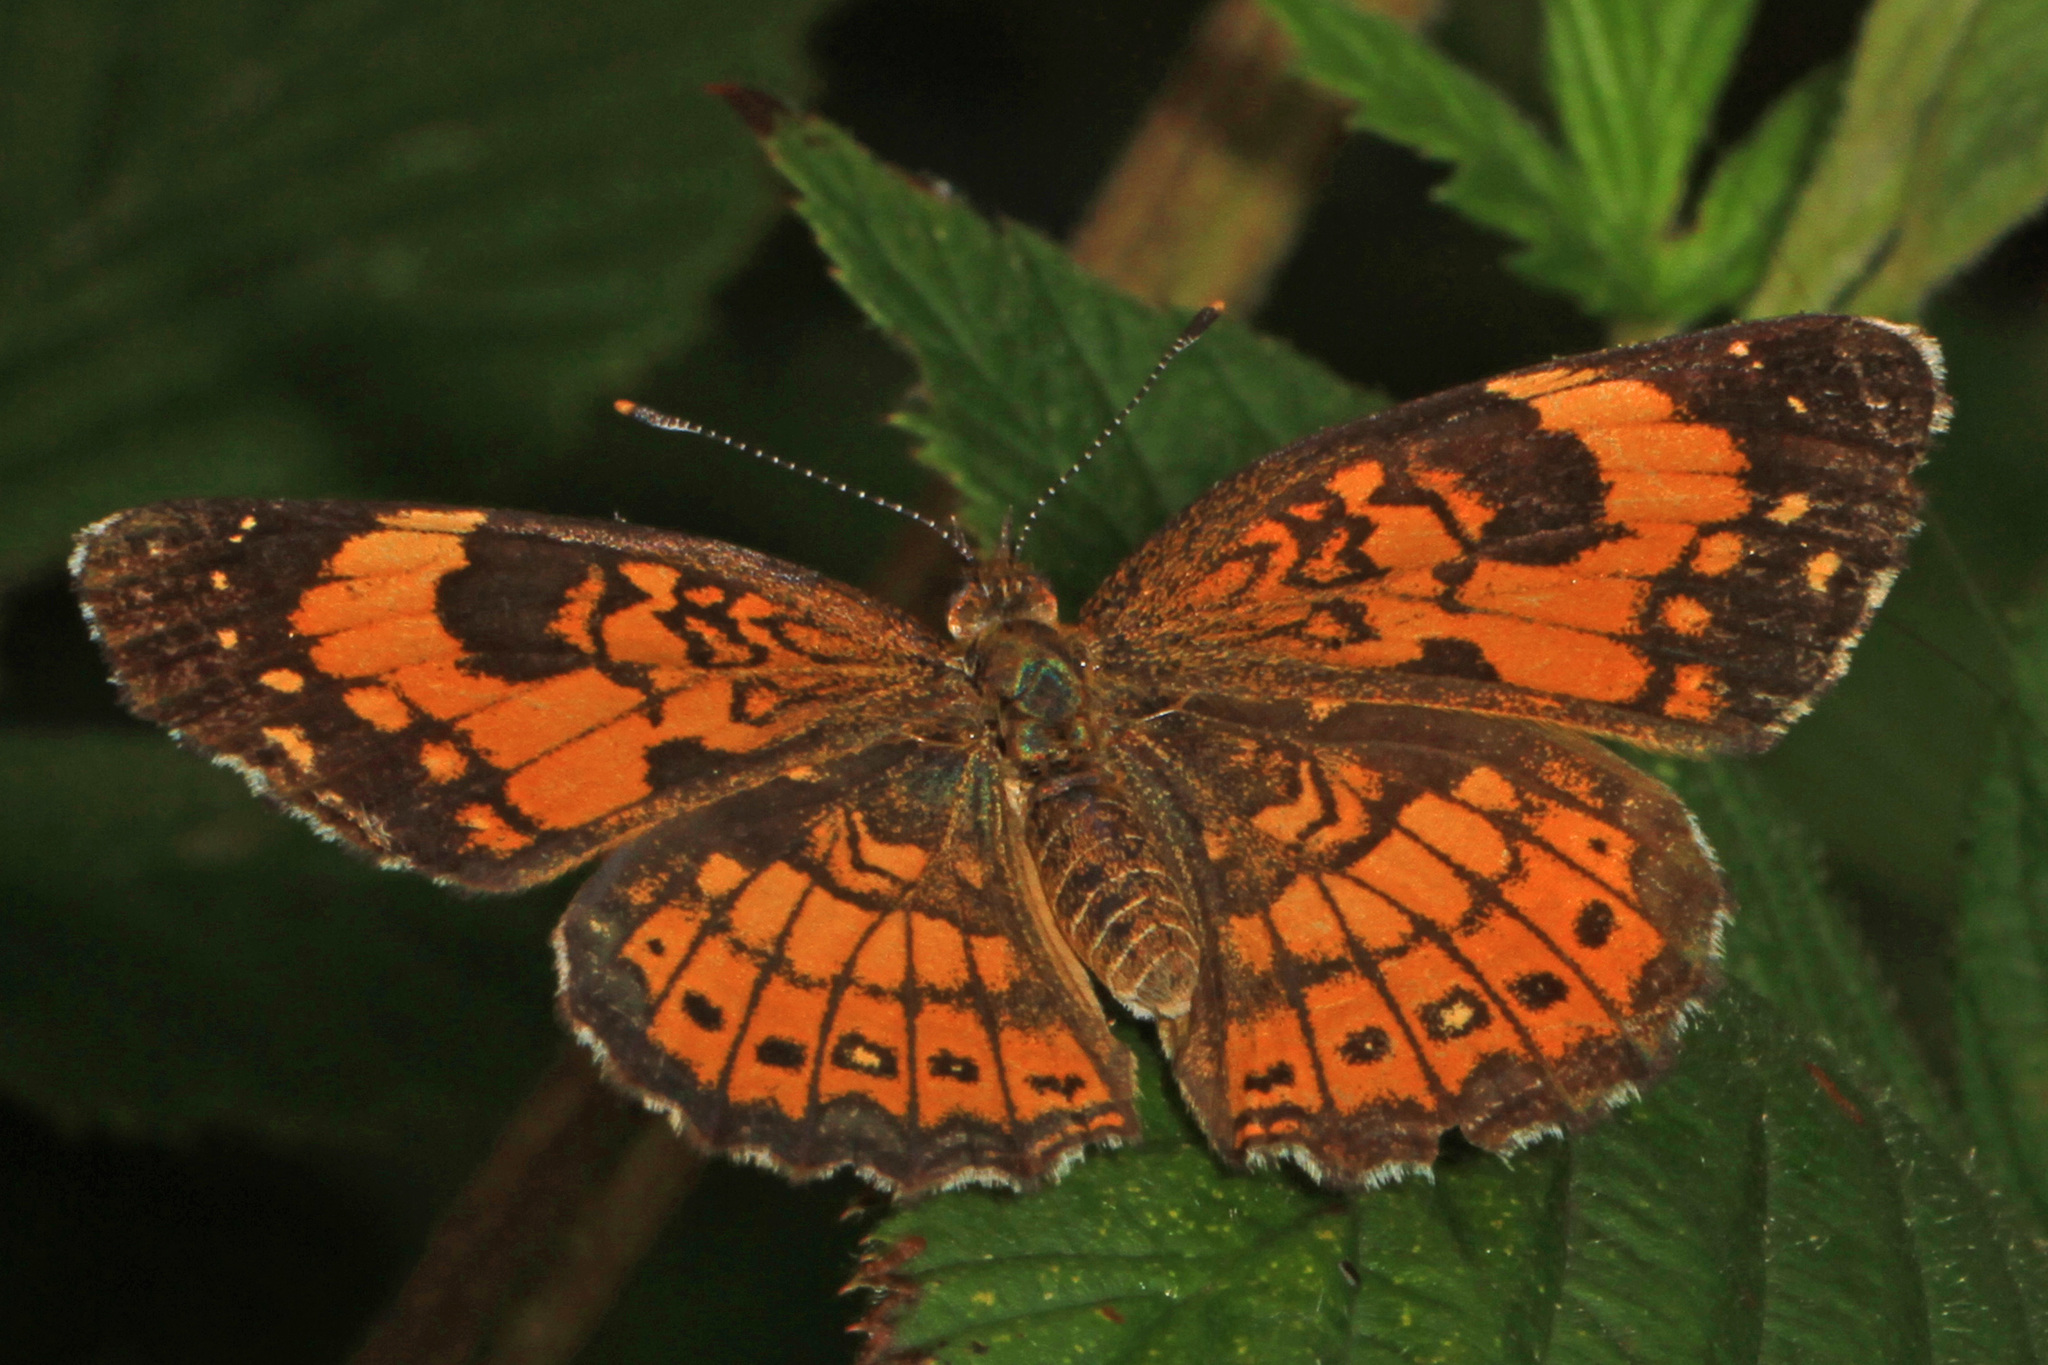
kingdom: Animalia
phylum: Arthropoda
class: Insecta
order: Lepidoptera
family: Nymphalidae
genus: Chlosyne
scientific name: Chlosyne nycteis
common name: Silvery checkerspot
